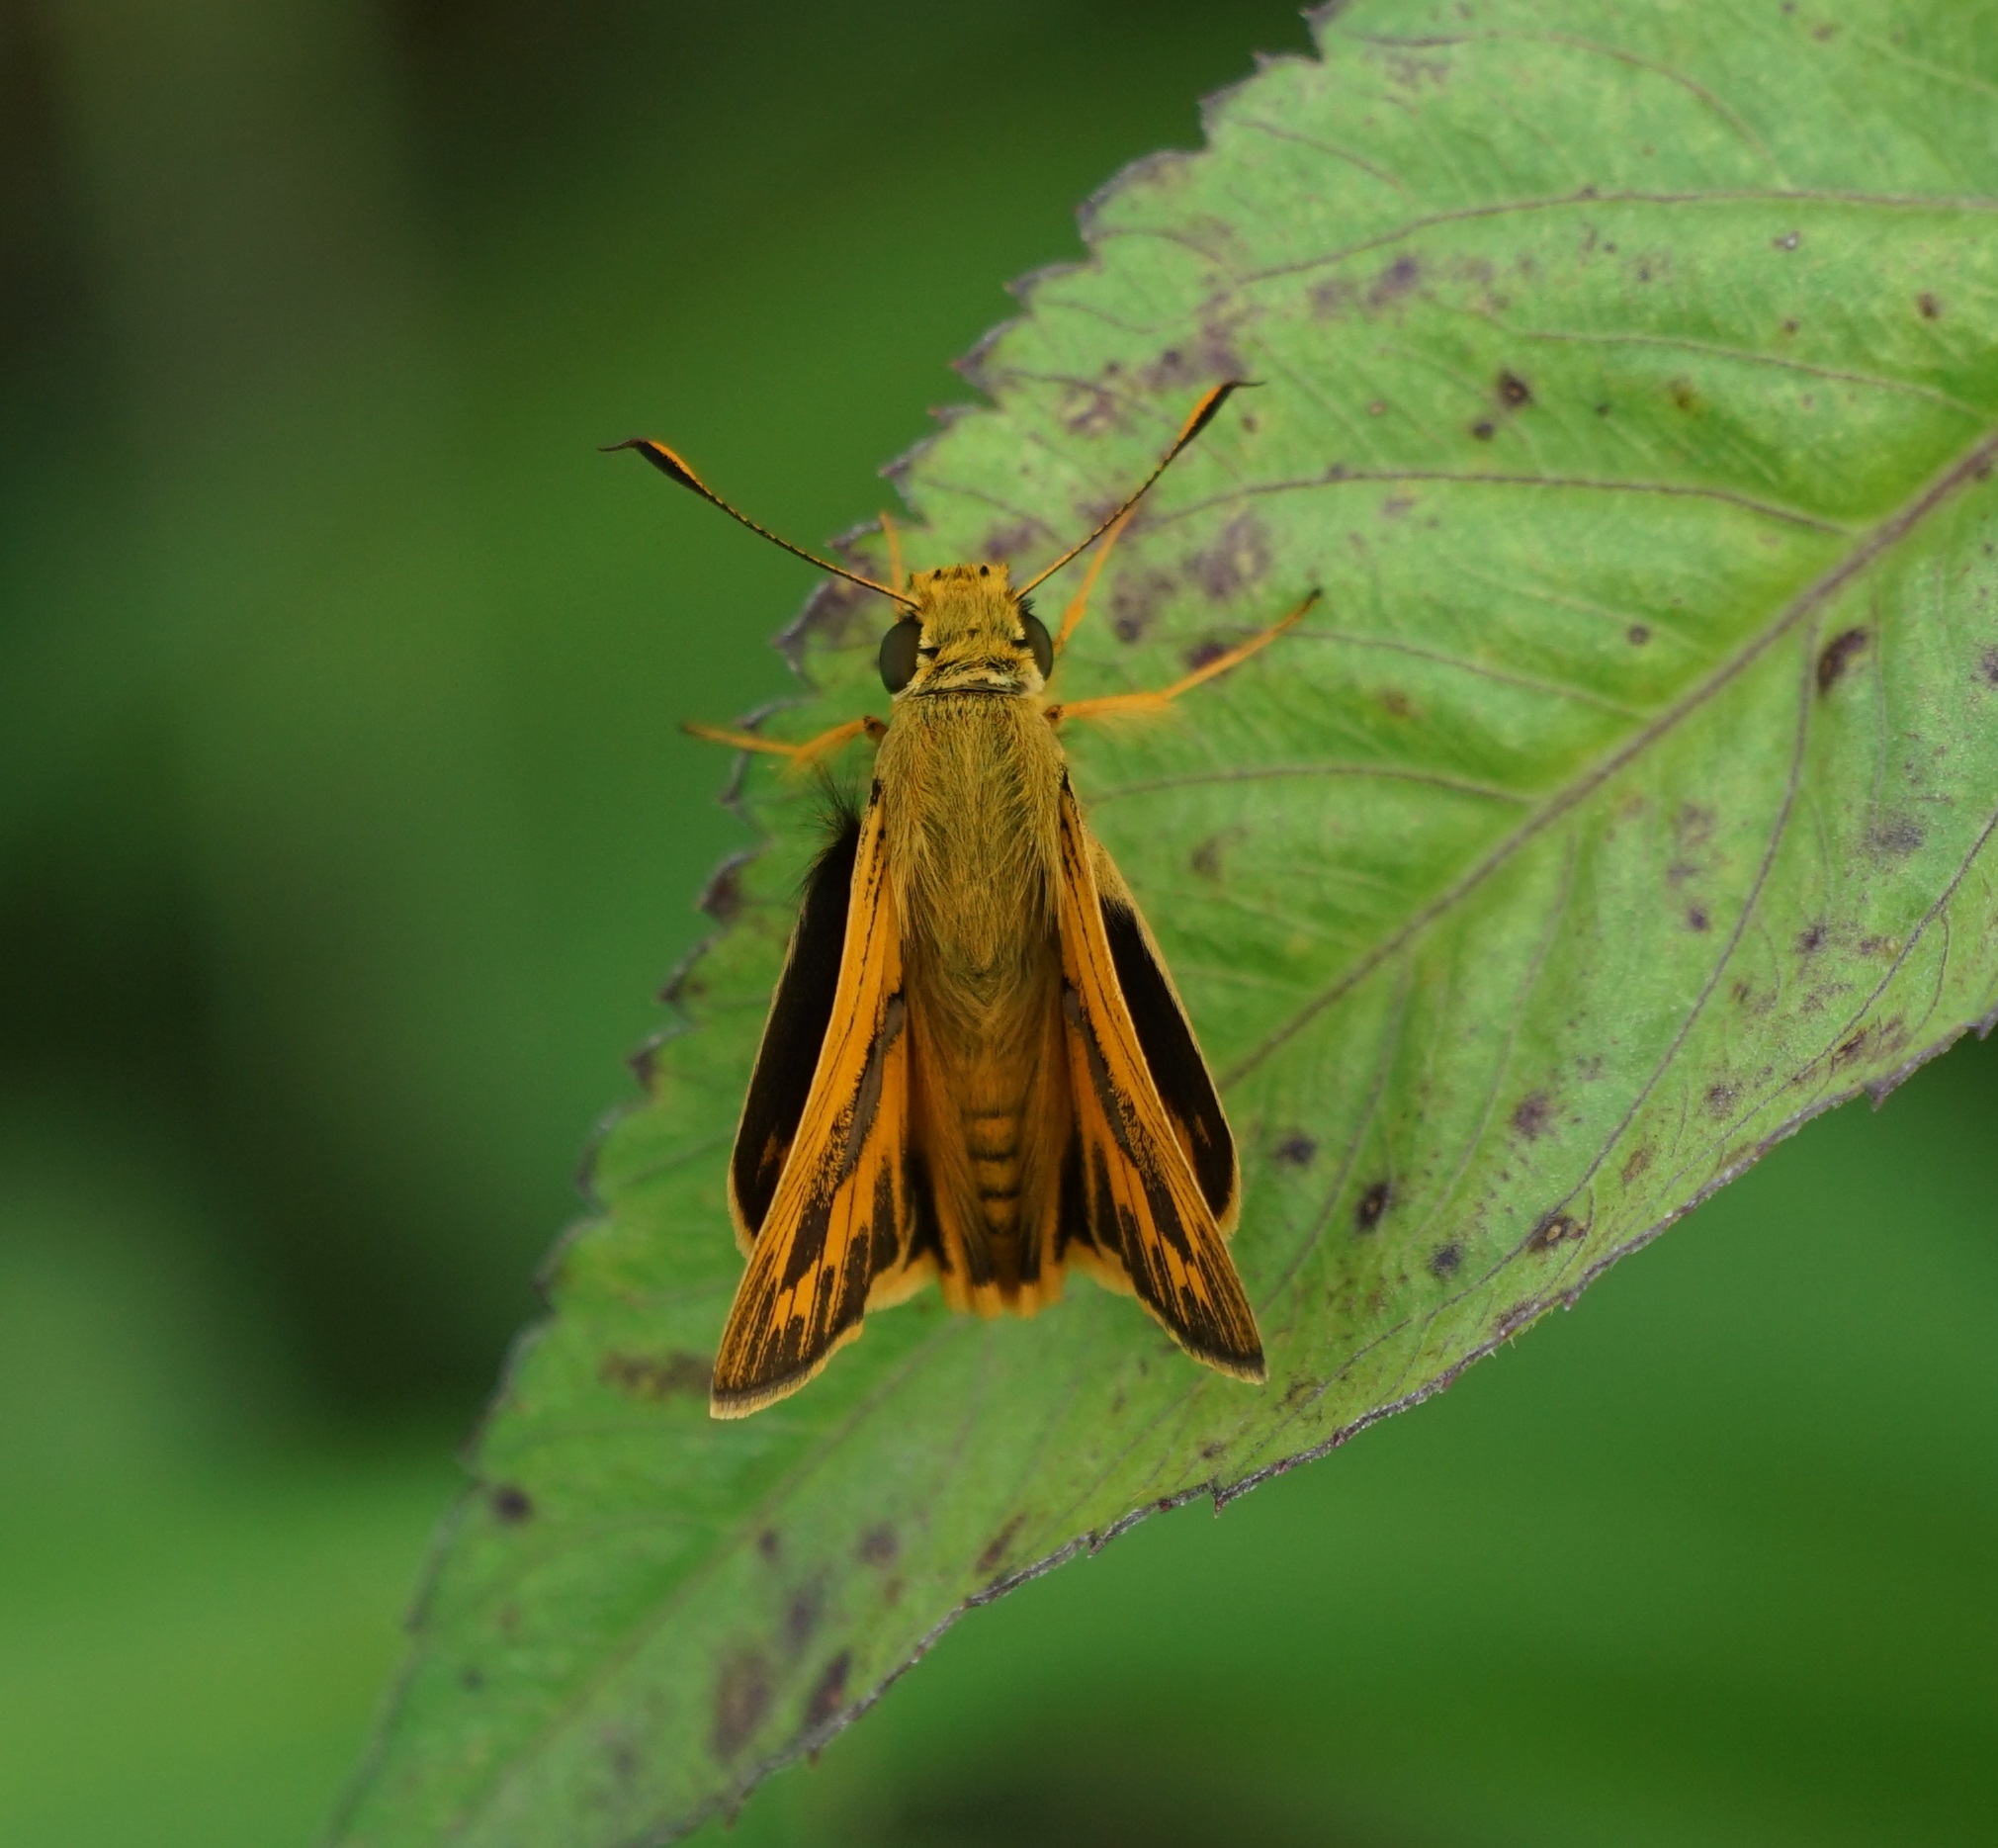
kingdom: Animalia
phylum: Arthropoda
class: Insecta
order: Lepidoptera
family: Hesperiidae
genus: Telicota
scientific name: Telicota colon
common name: Pale palm dart
